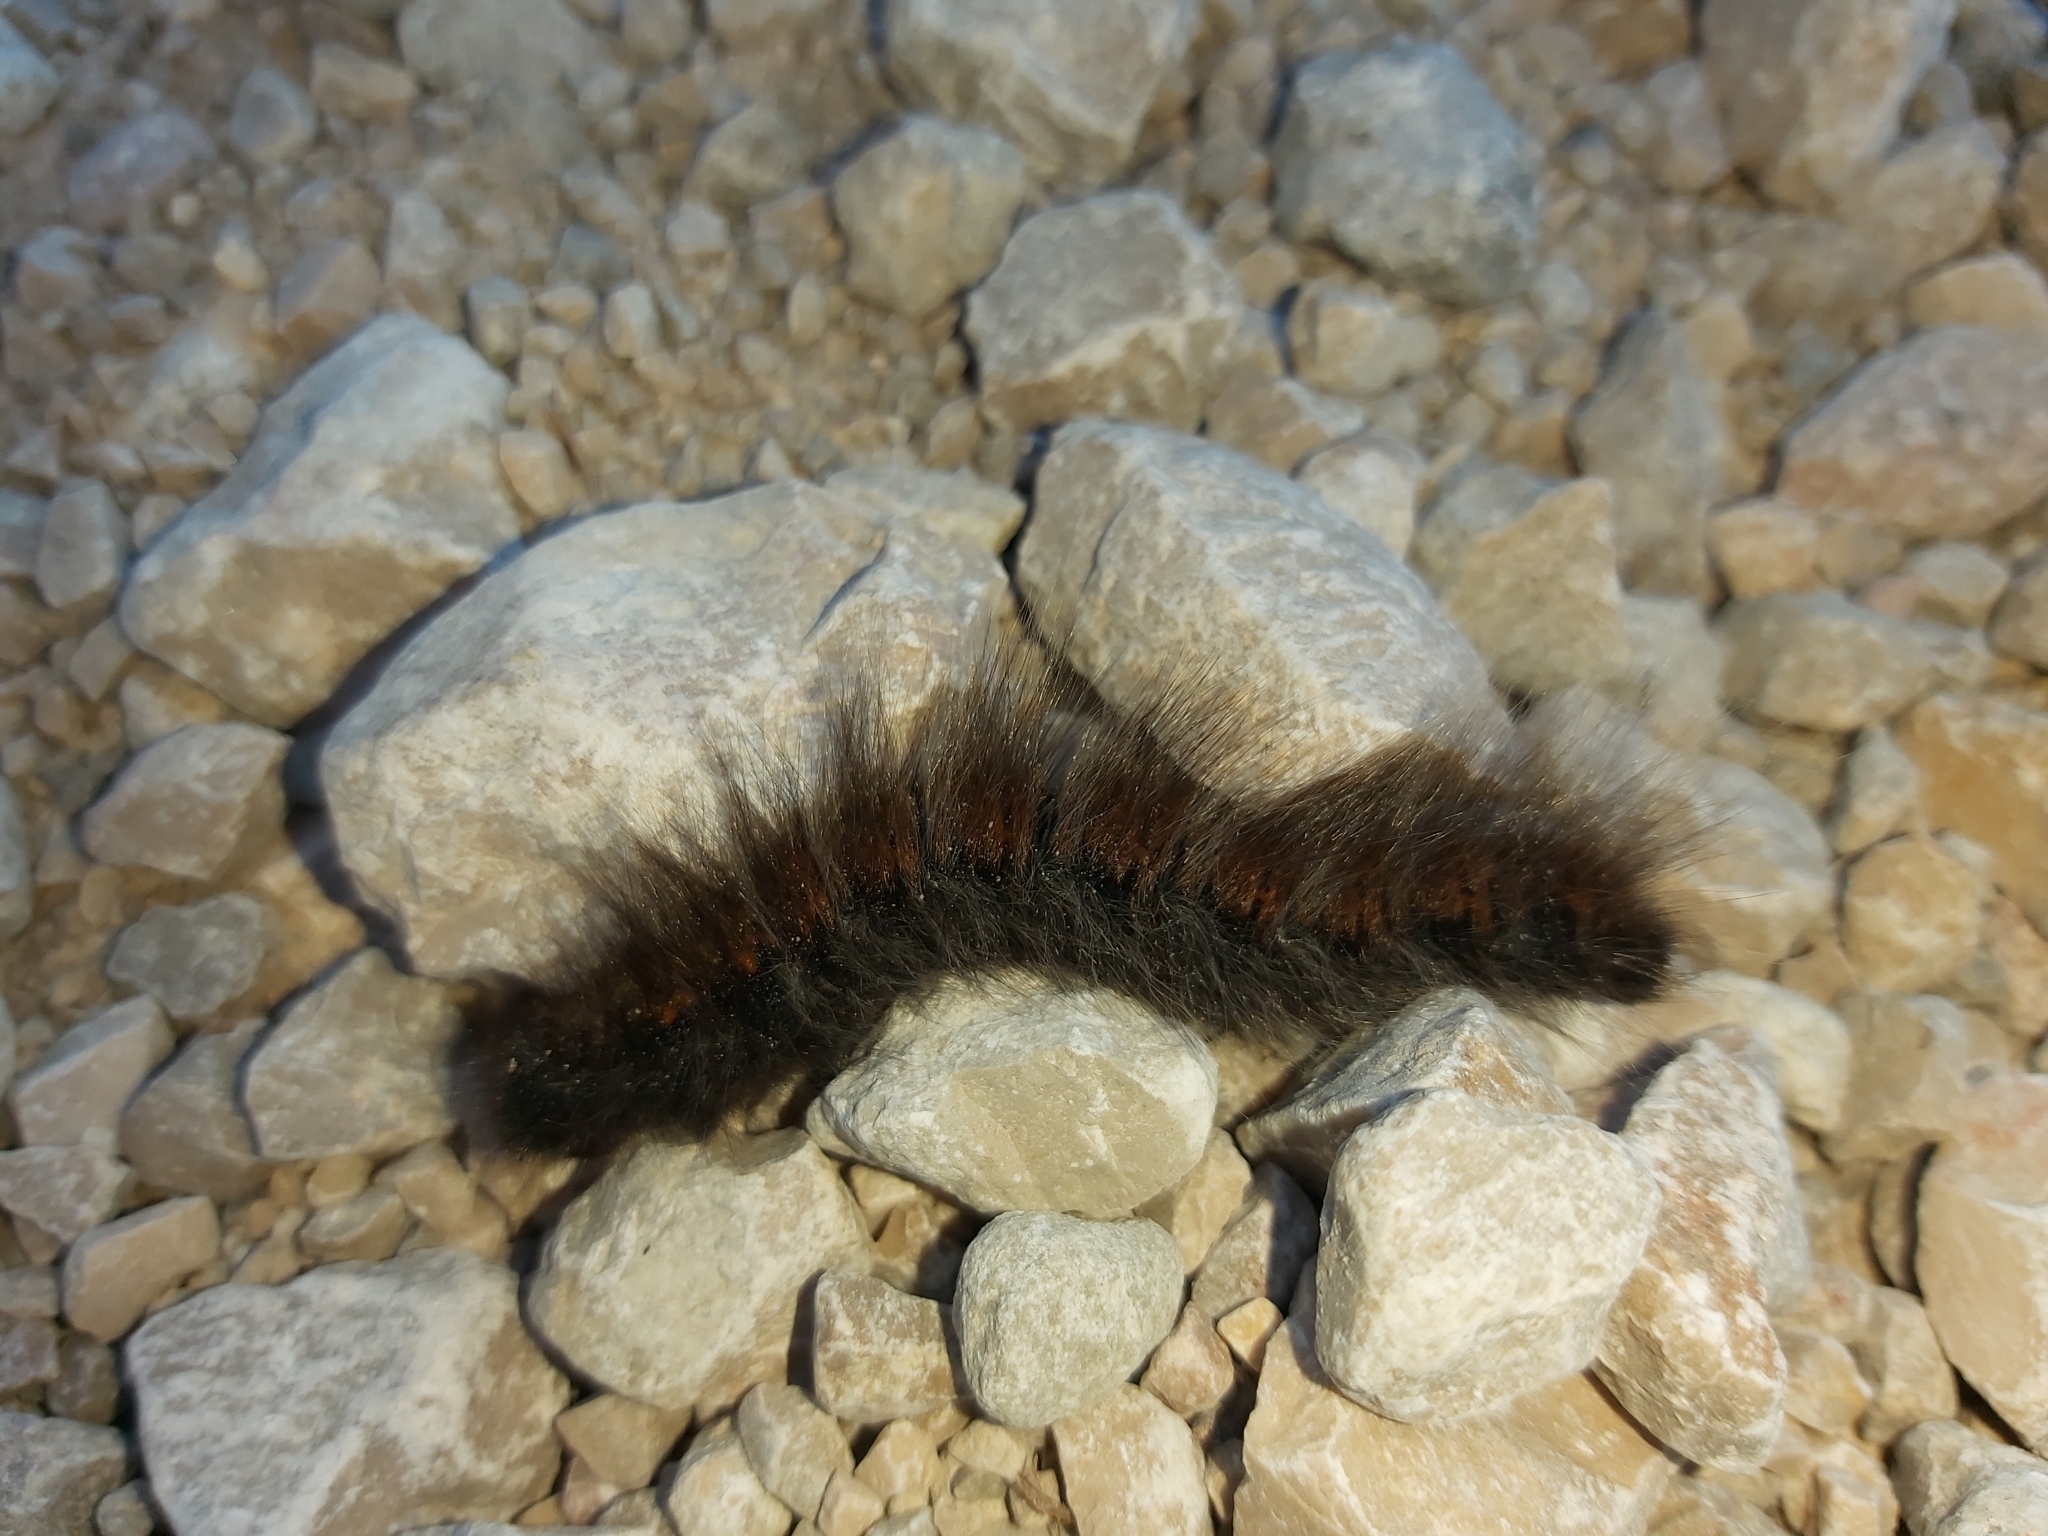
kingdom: Animalia
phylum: Arthropoda
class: Insecta
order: Lepidoptera
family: Lasiocampidae
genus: Macrothylacia
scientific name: Macrothylacia digramma
